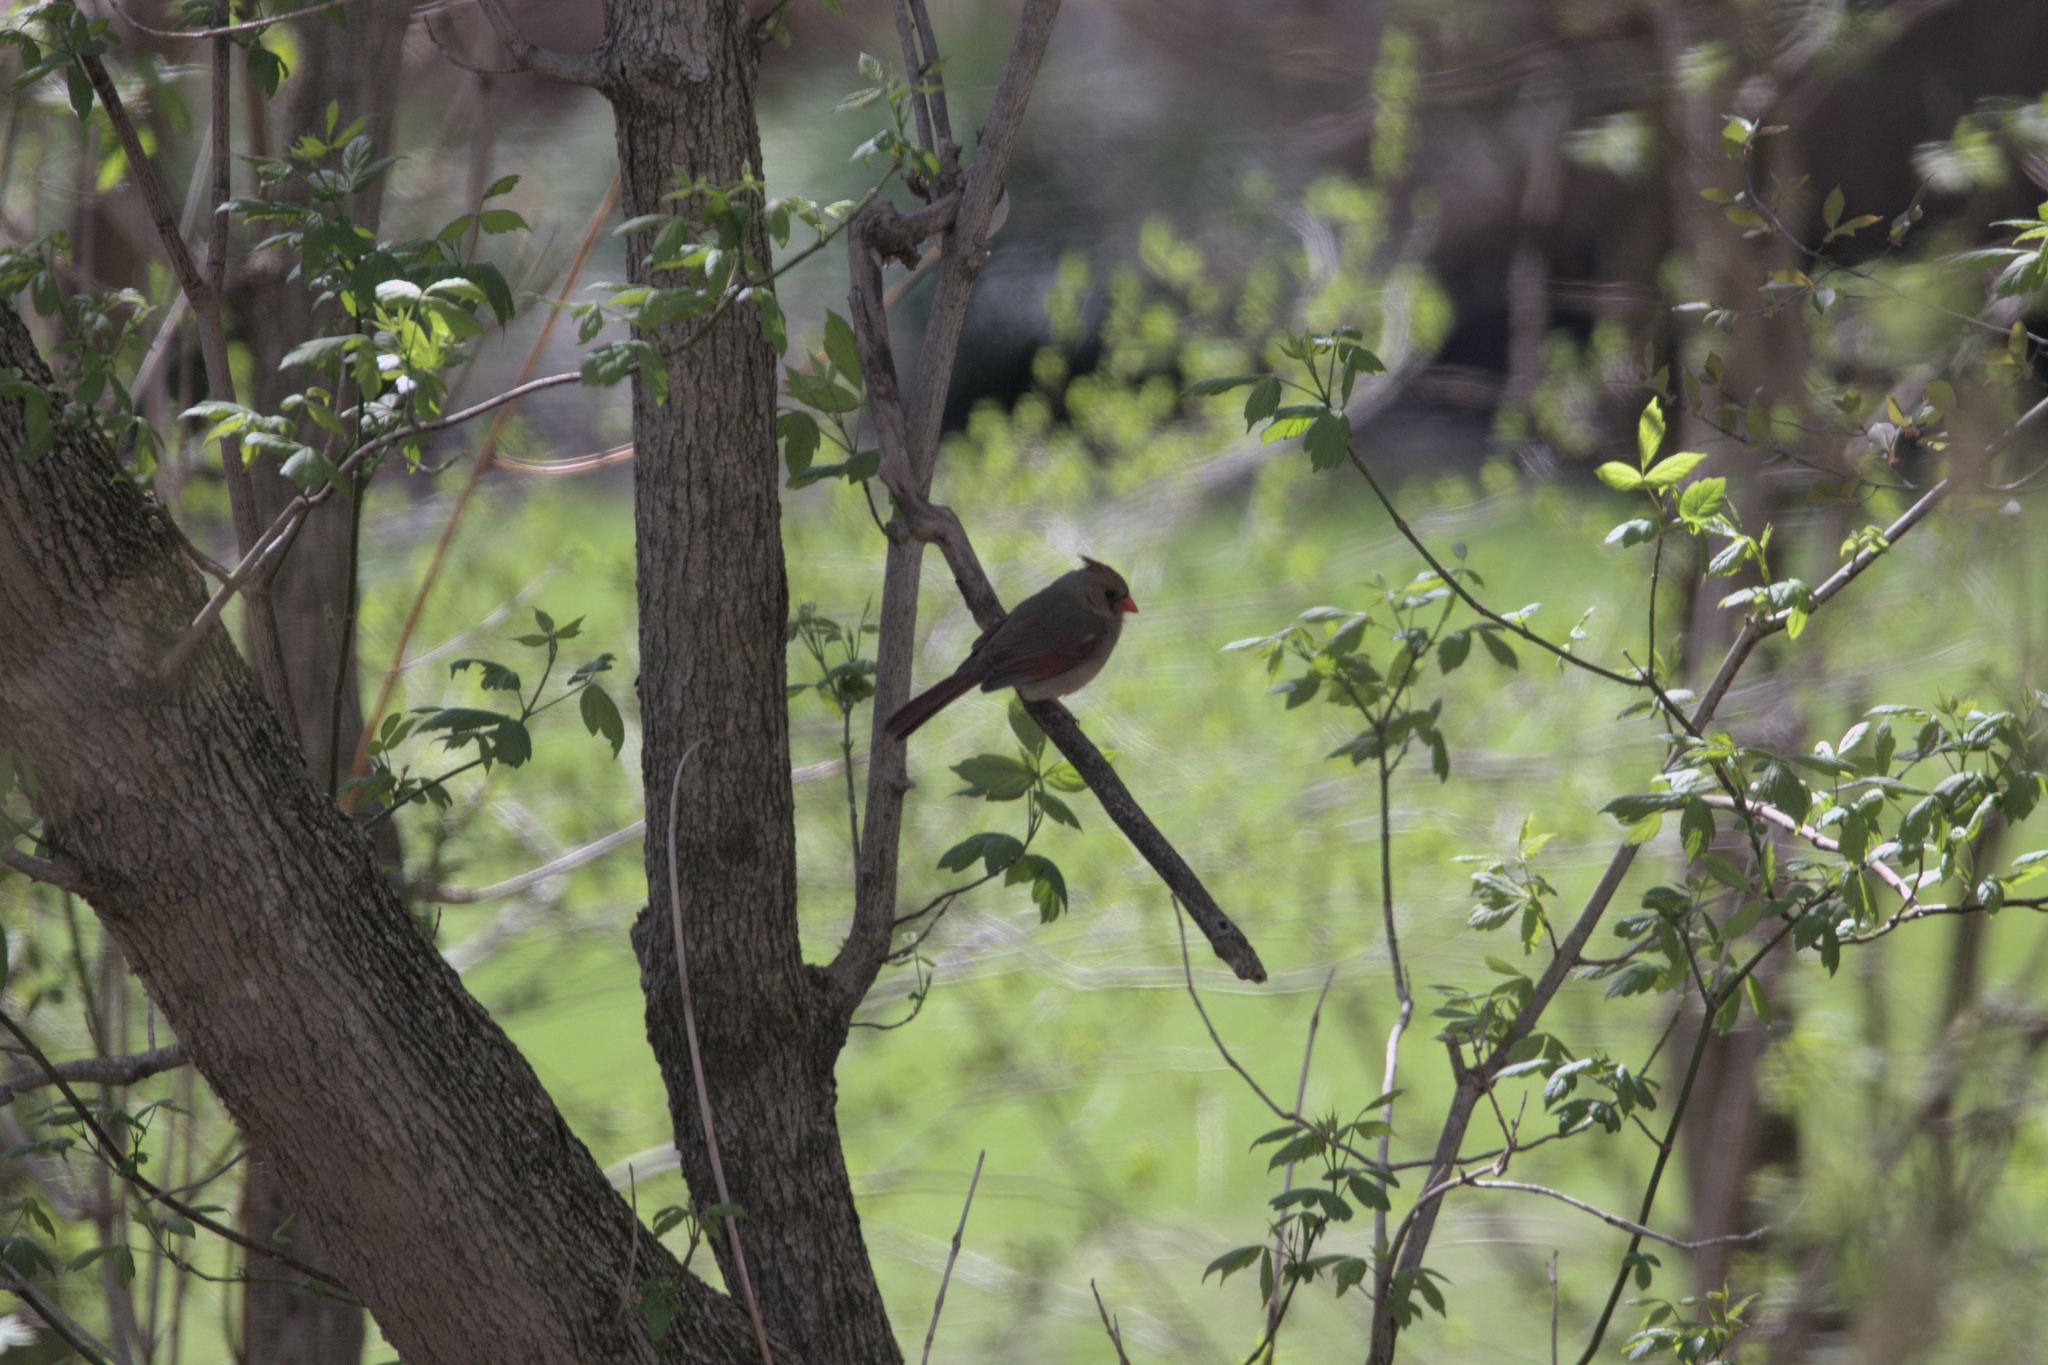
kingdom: Animalia
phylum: Chordata
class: Aves
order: Passeriformes
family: Cardinalidae
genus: Cardinalis
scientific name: Cardinalis cardinalis
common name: Northern cardinal
